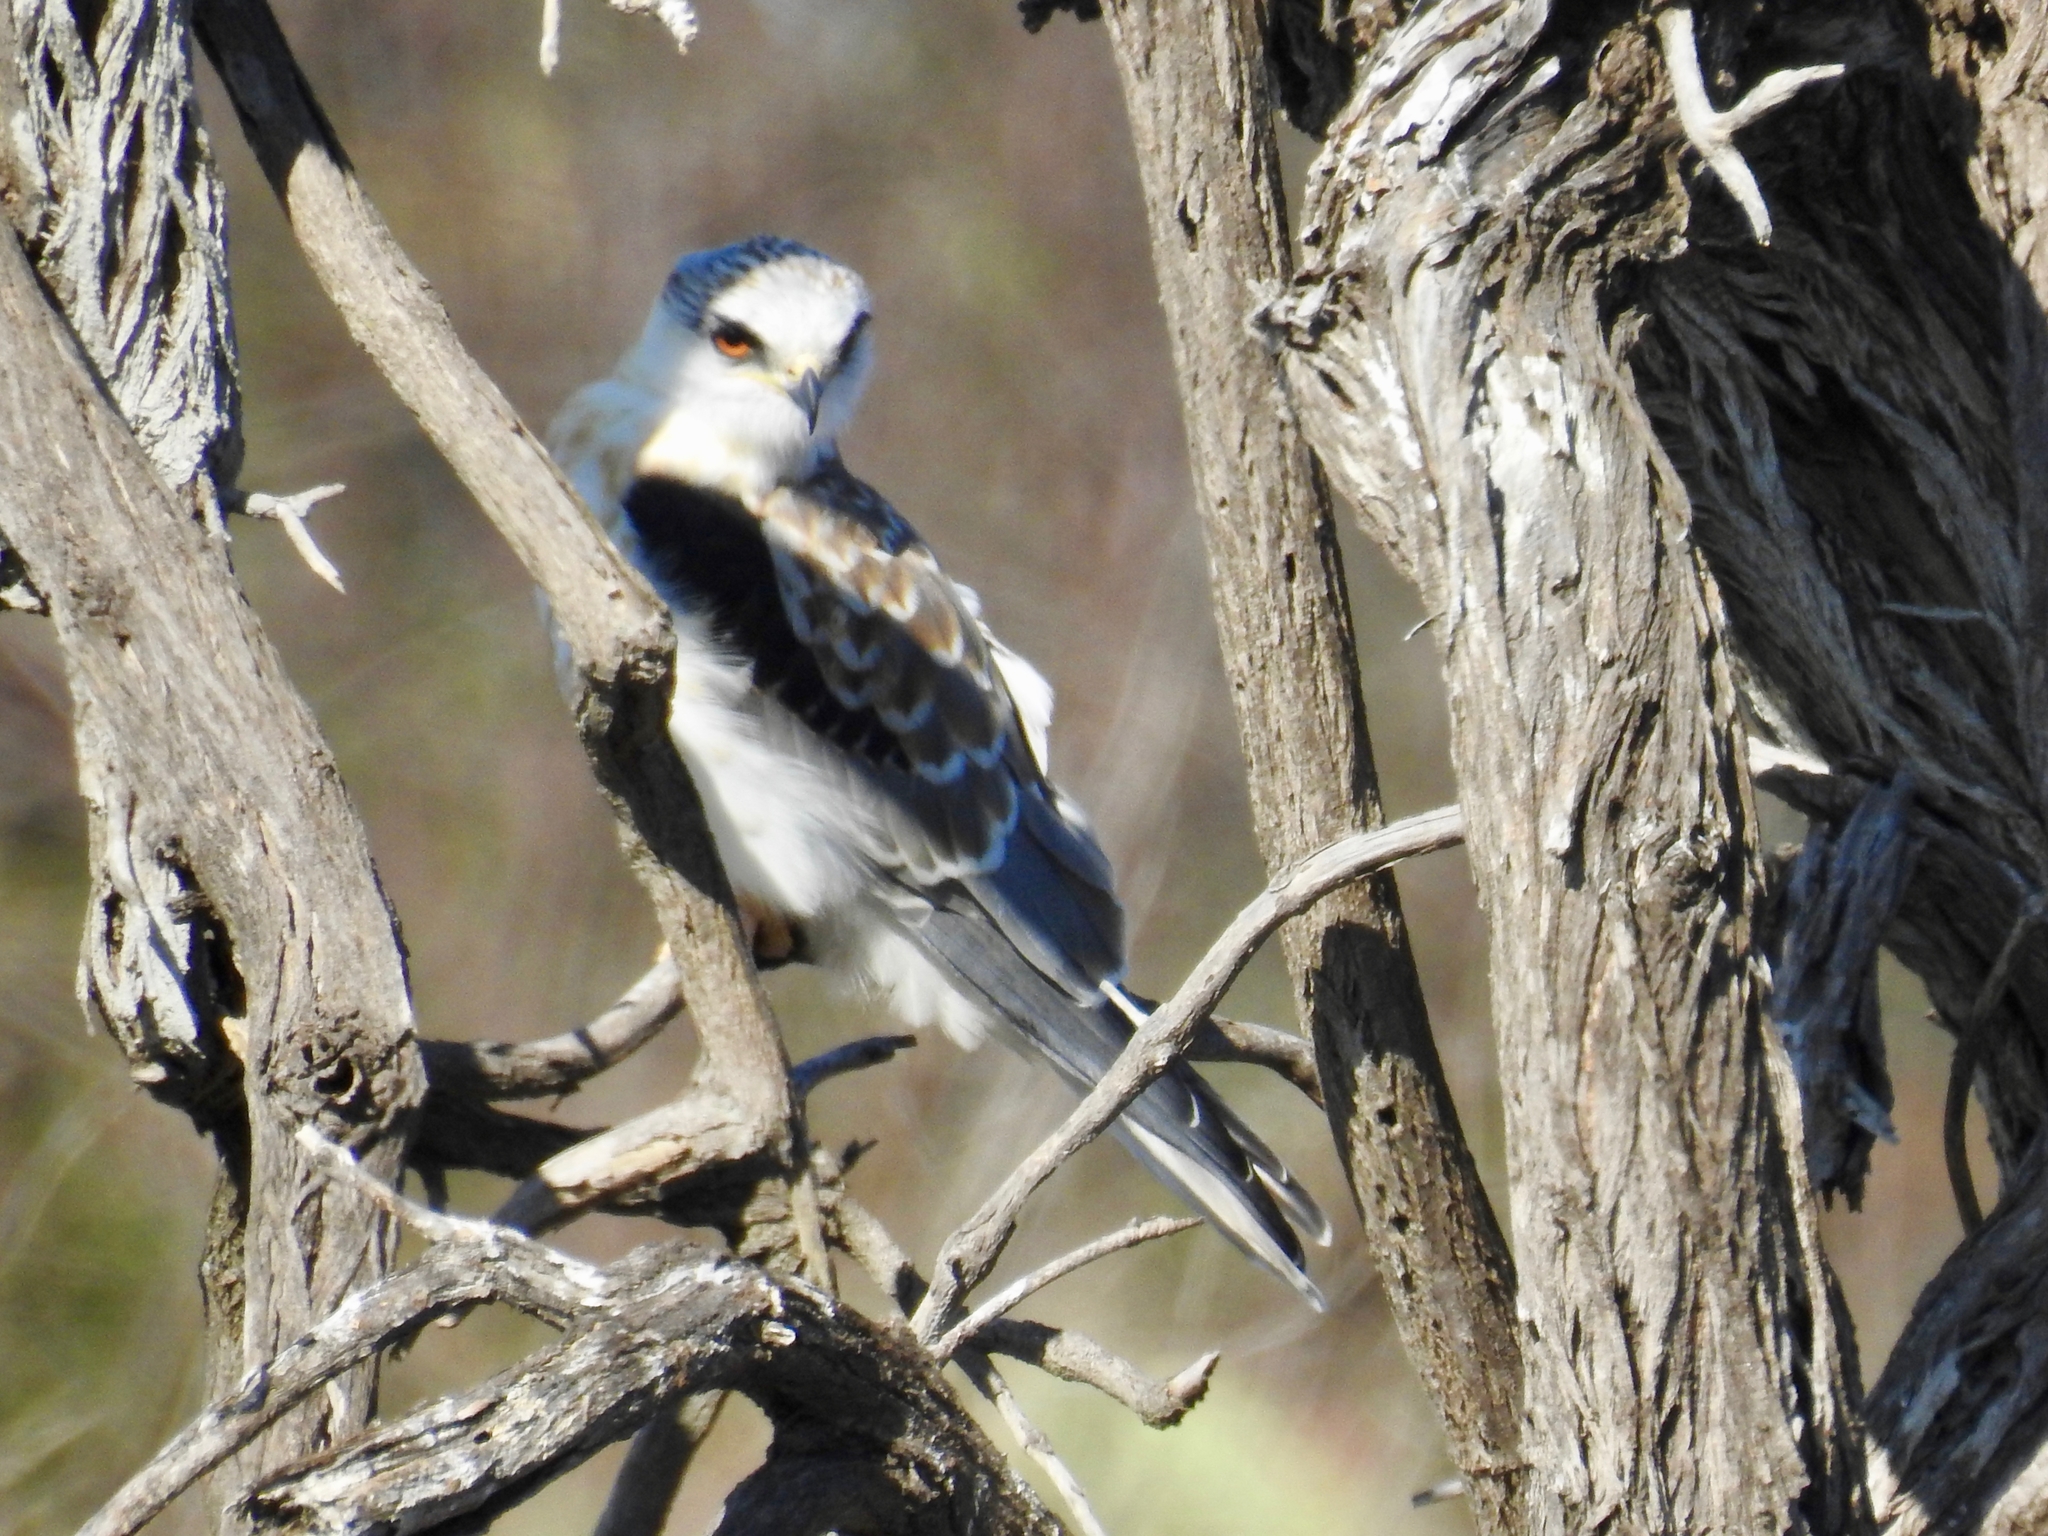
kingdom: Animalia
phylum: Chordata
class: Aves
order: Accipitriformes
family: Accipitridae
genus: Elanus
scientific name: Elanus leucurus
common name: White-tailed kite
